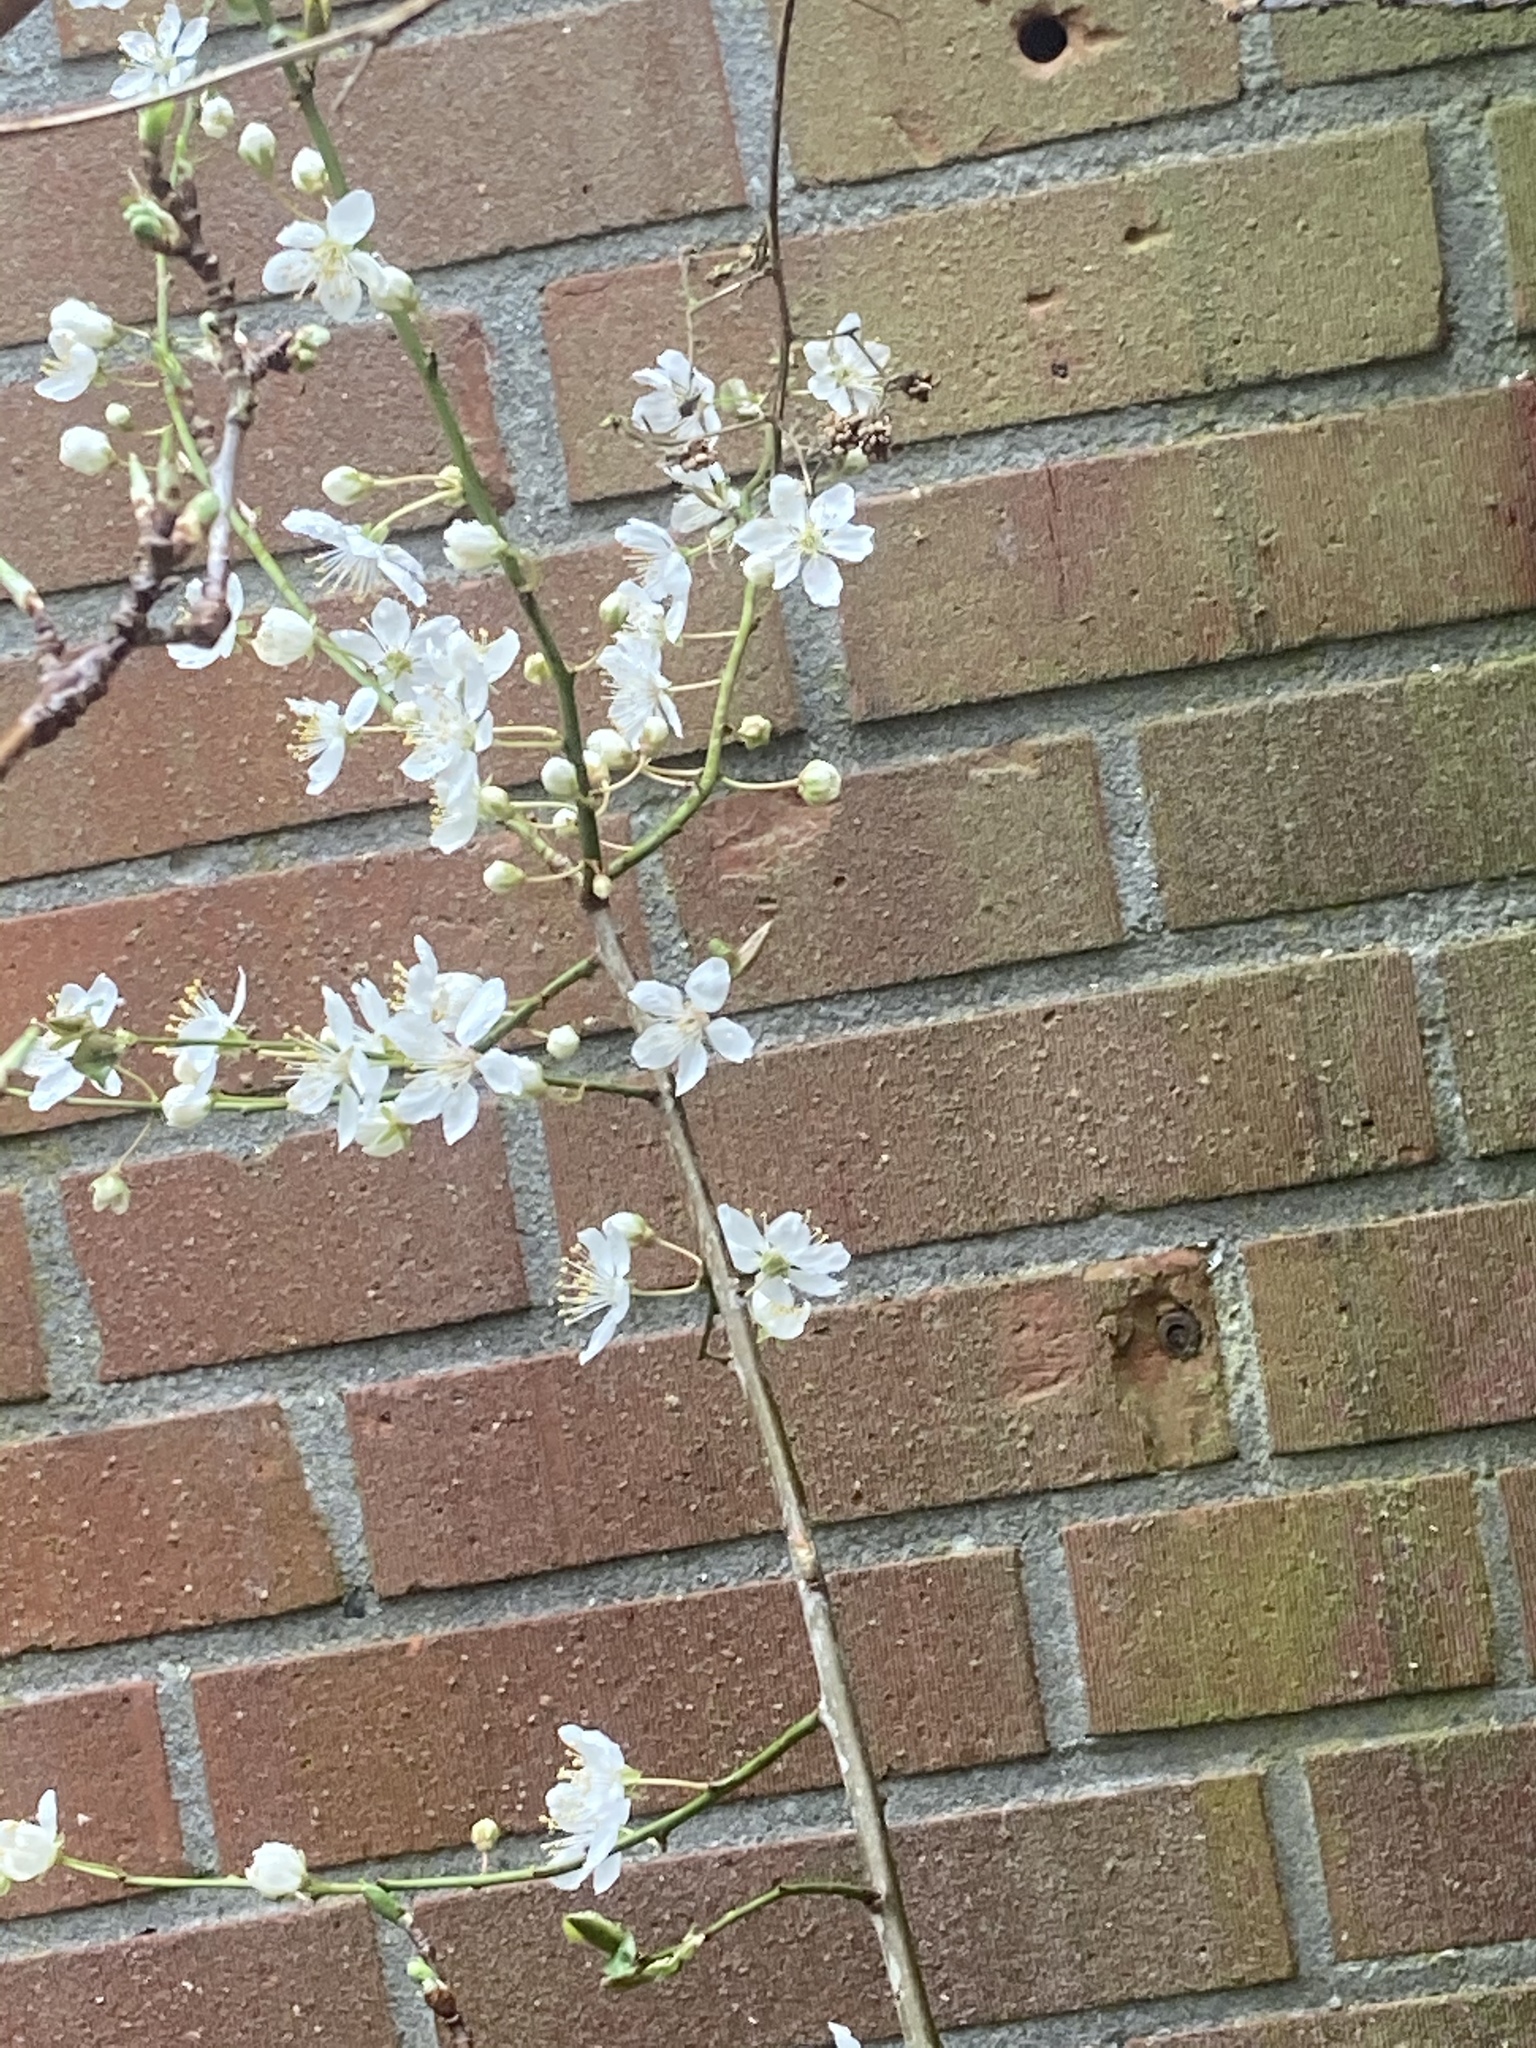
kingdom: Plantae
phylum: Tracheophyta
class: Magnoliopsida
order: Rosales
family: Rosaceae
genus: Prunus
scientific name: Prunus cerasifera
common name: Cherry plum
